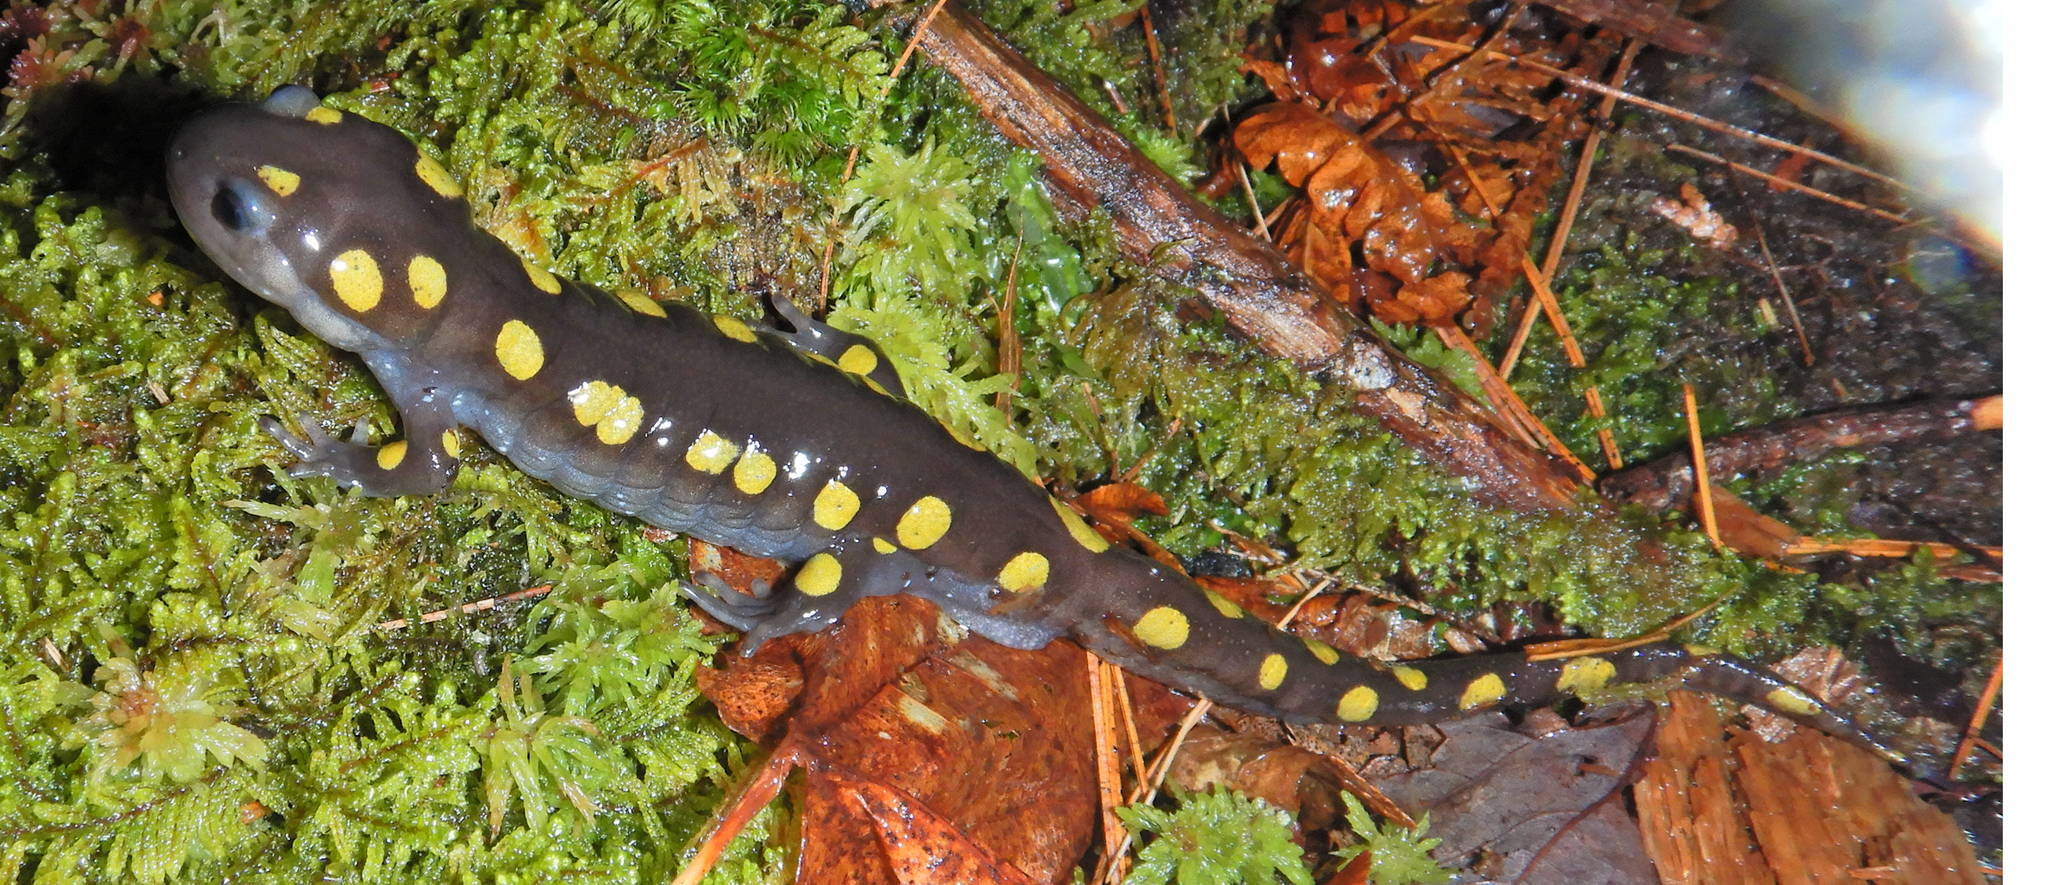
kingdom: Animalia
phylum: Chordata
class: Amphibia
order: Caudata
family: Ambystomatidae
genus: Ambystoma
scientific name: Ambystoma maculatum
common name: Spotted salamander
